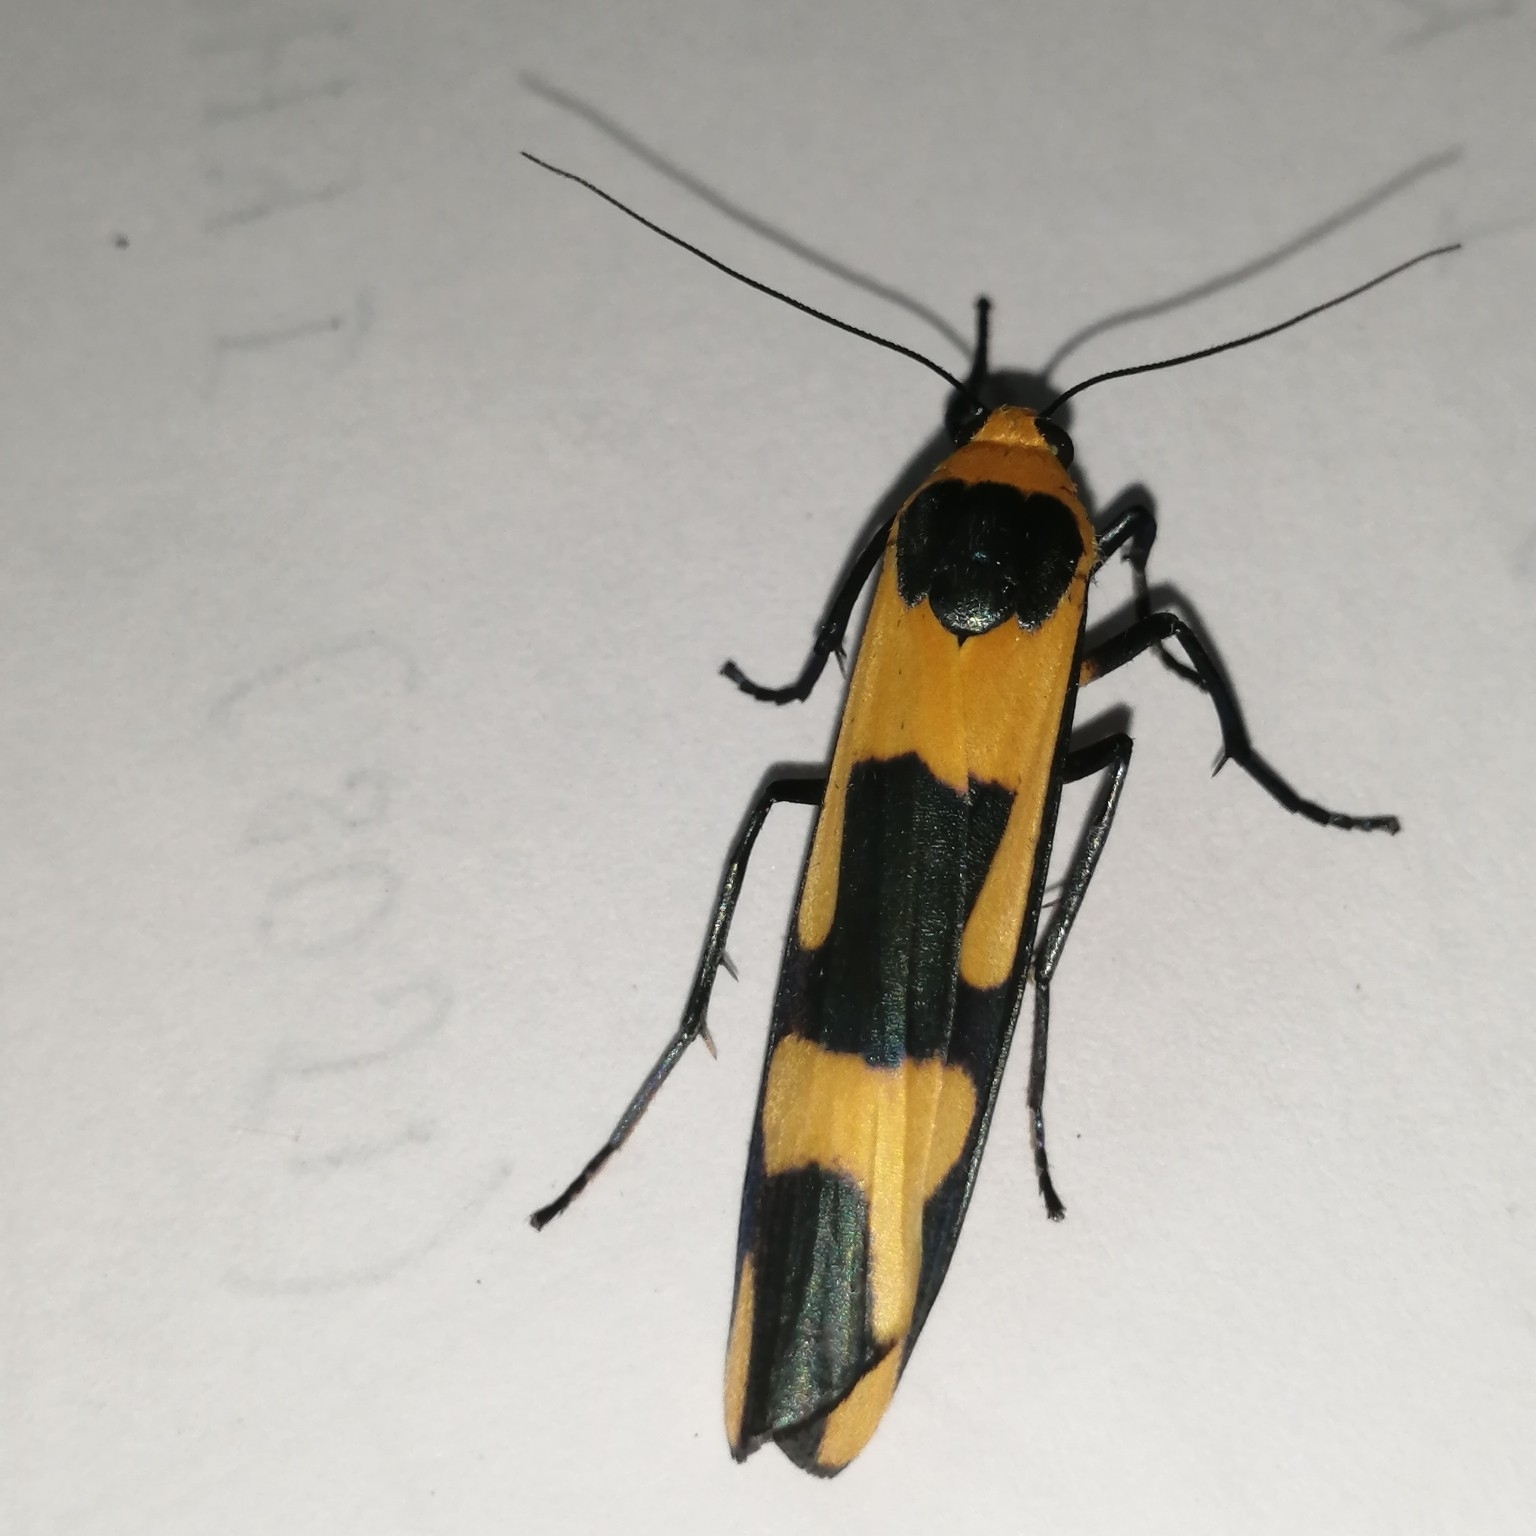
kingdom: Animalia
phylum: Arthropoda
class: Insecta
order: Lepidoptera
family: Erebidae
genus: Oeonistis
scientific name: Oeonistis entella
